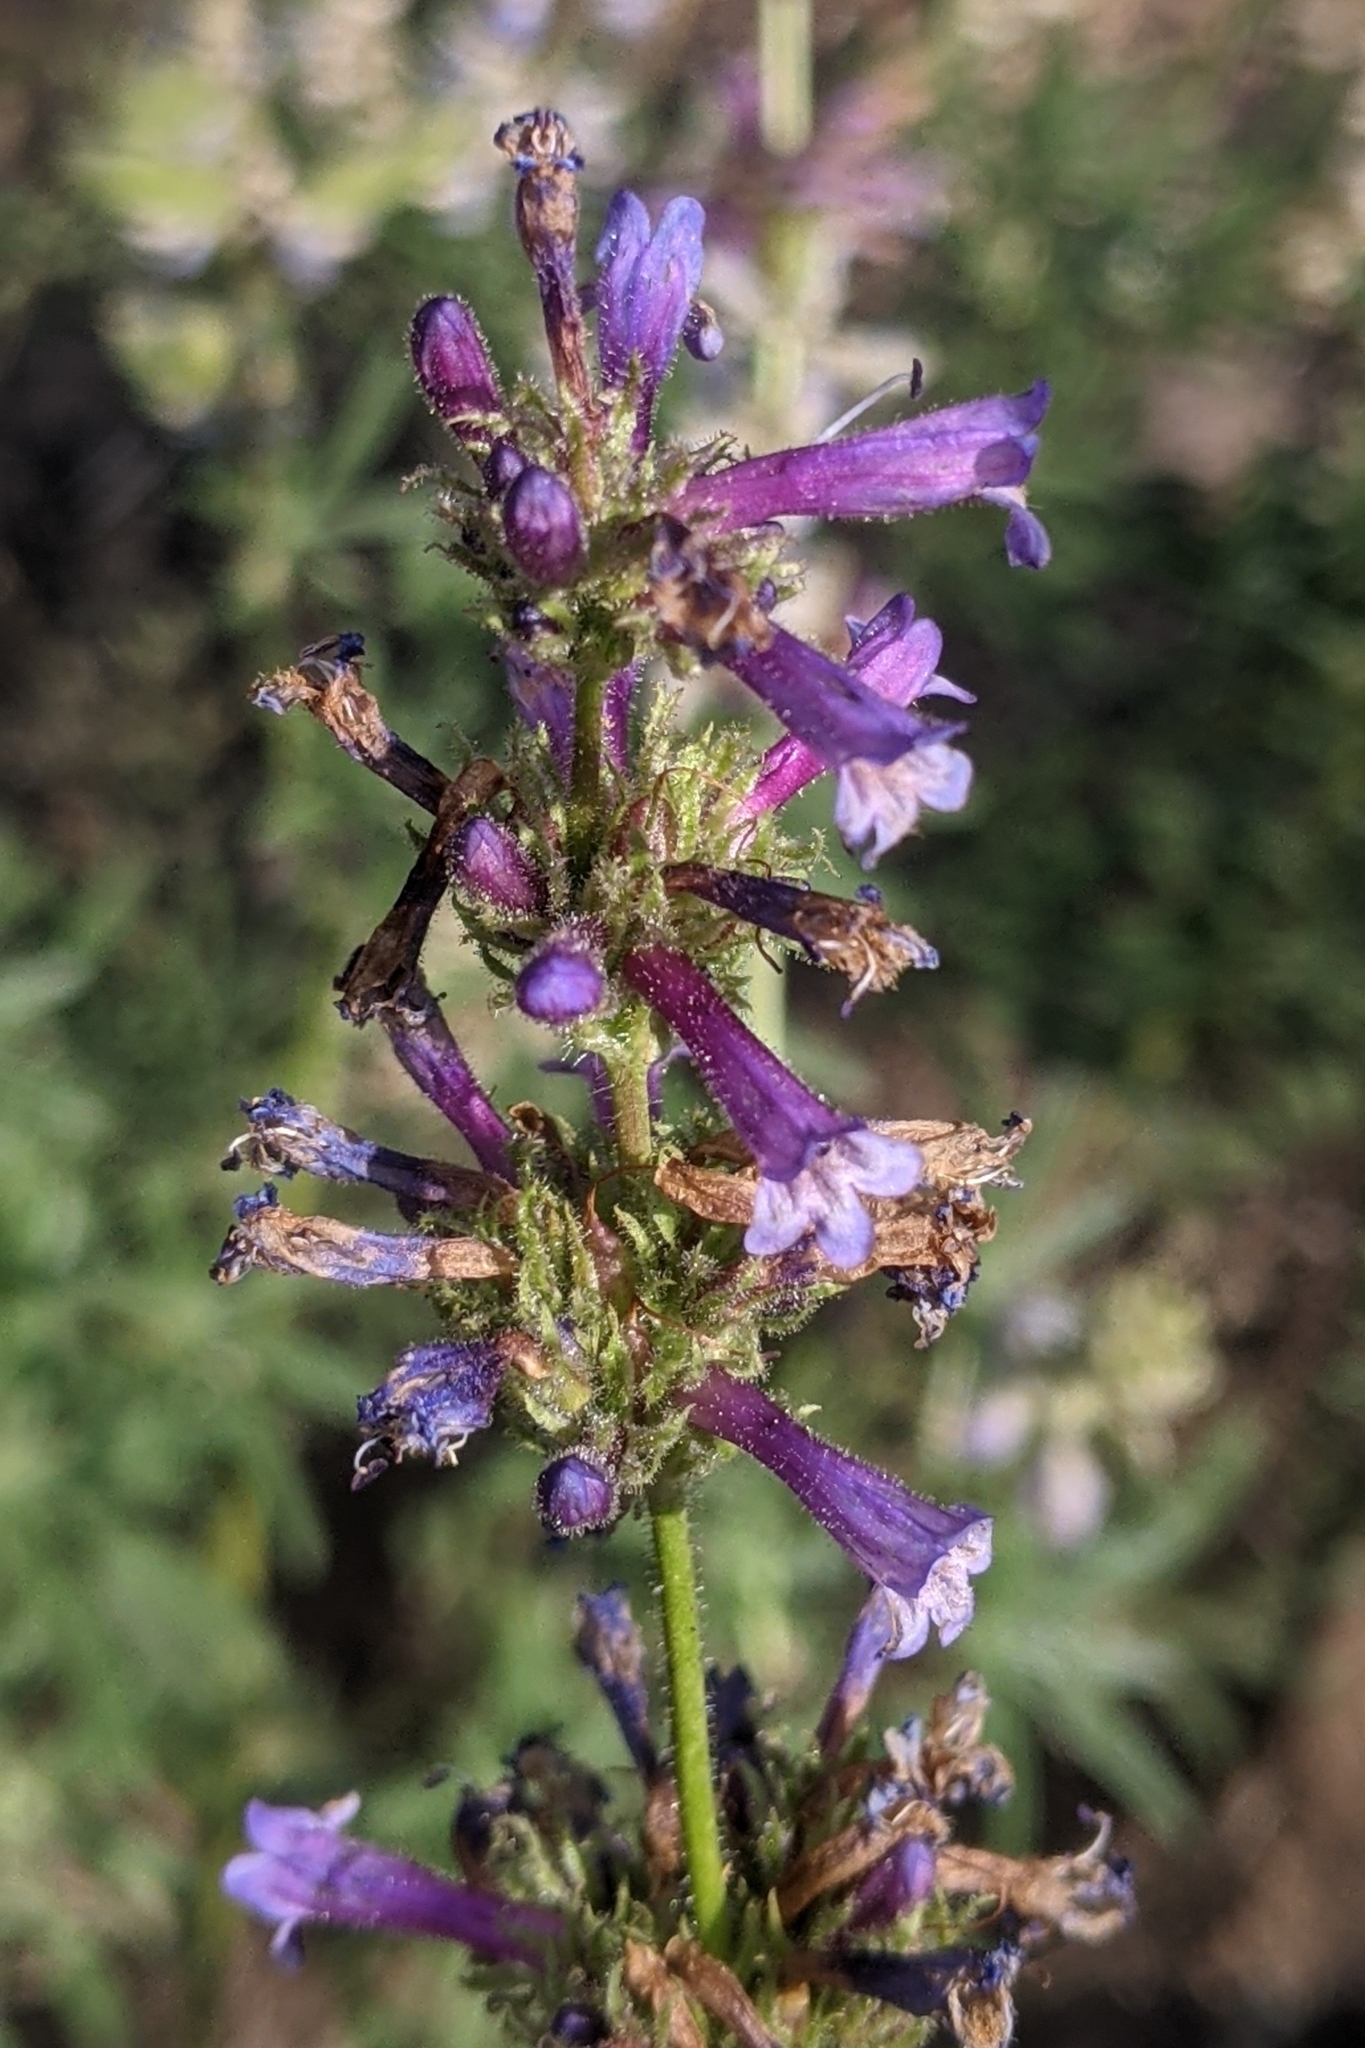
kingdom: Plantae
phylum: Tracheophyta
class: Magnoliopsida
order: Lamiales
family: Plantaginaceae
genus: Penstemon
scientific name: Penstemon rydbergii
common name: Rydberg's beardtongue
